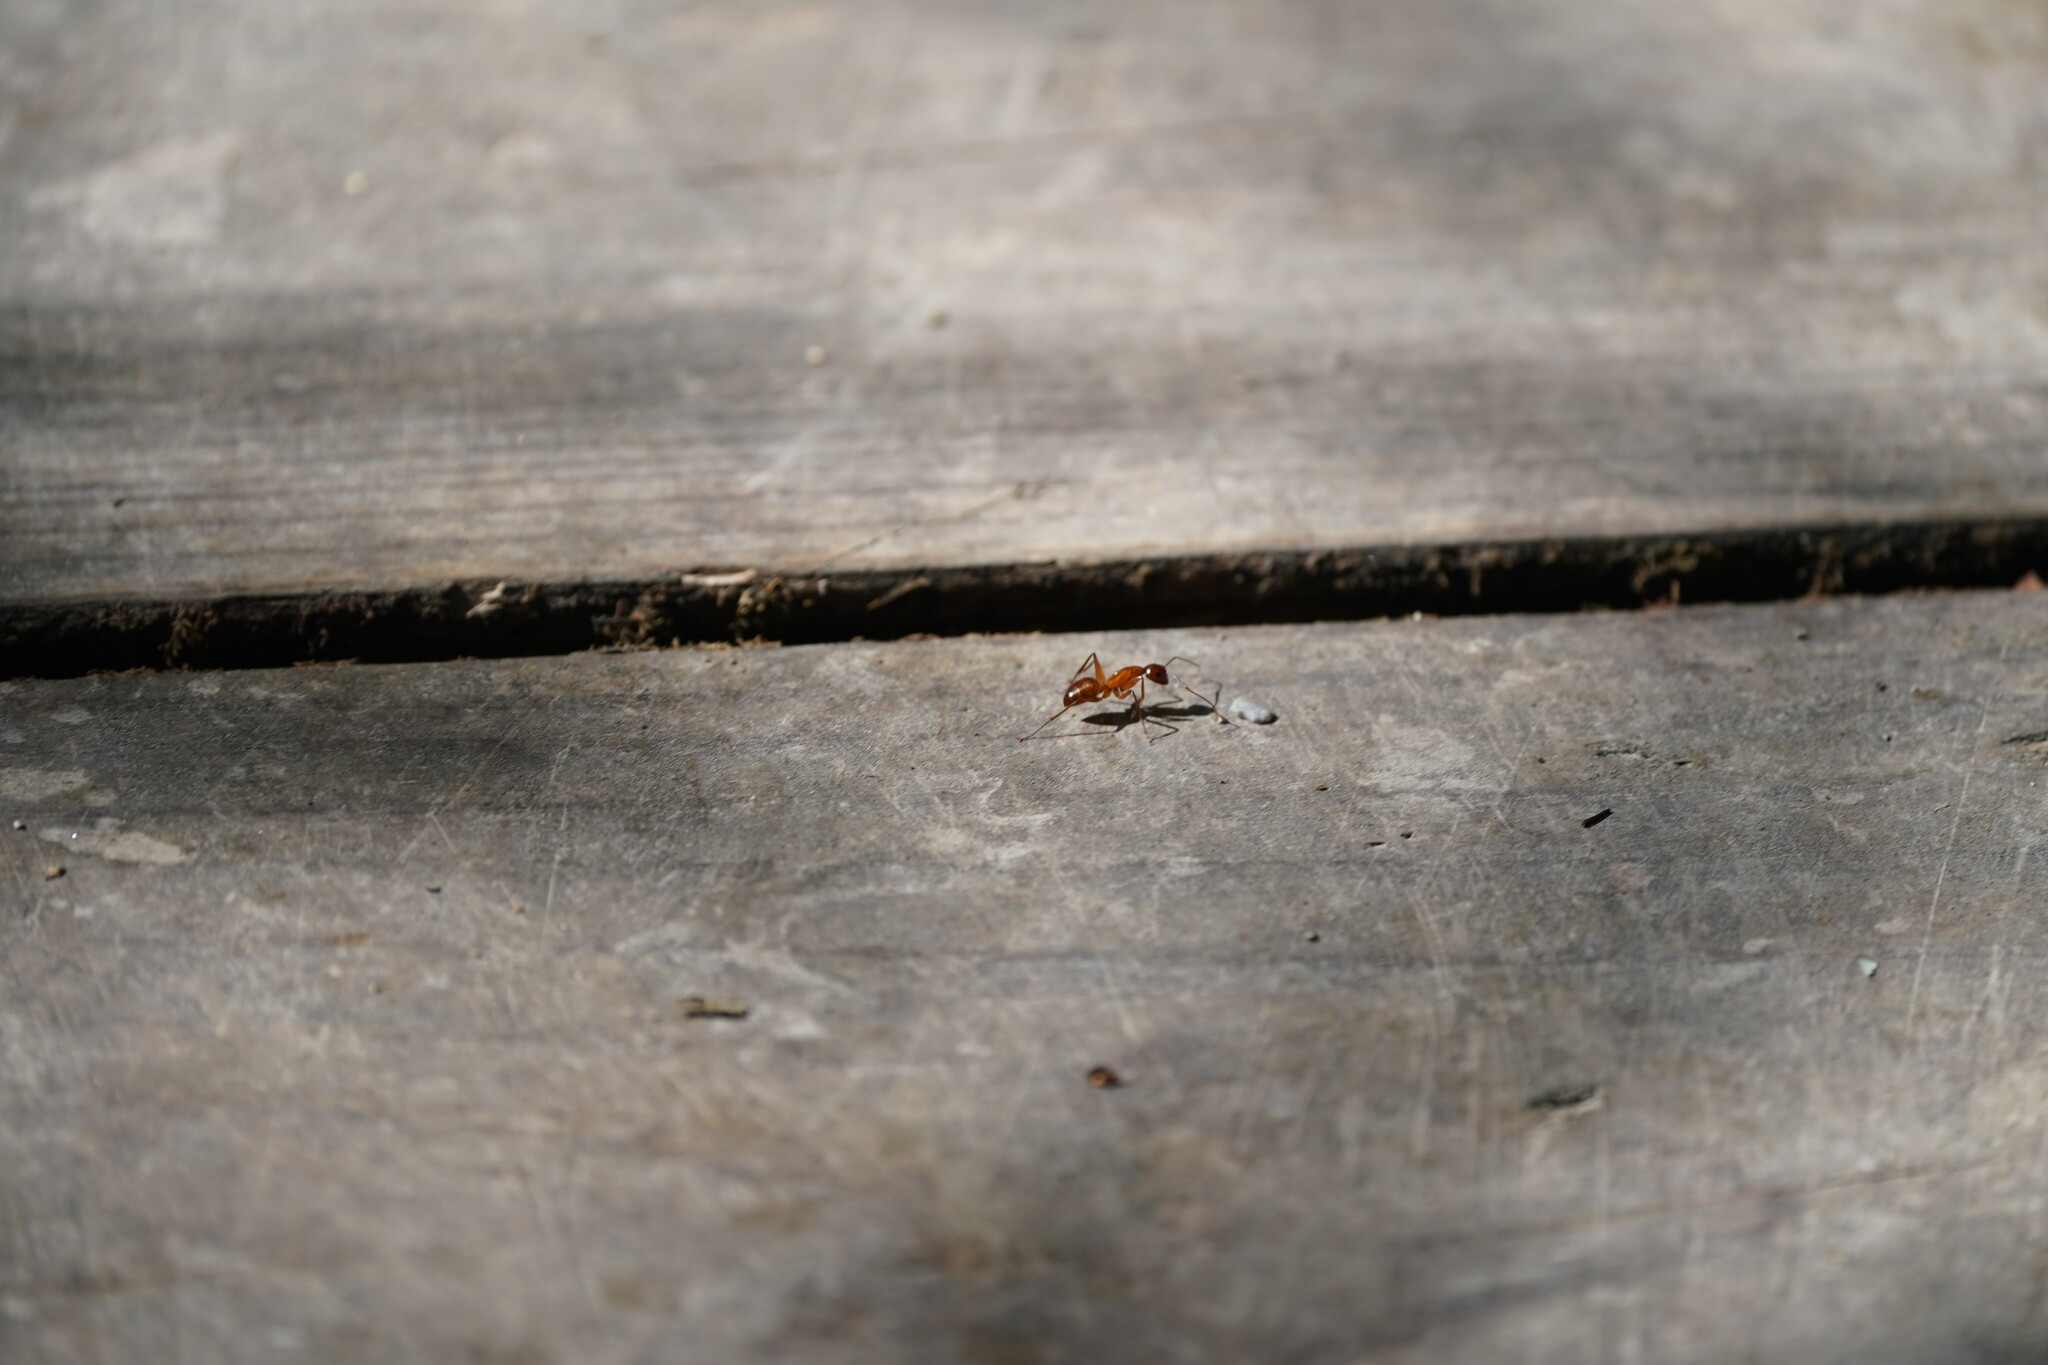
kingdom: Animalia
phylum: Arthropoda
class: Insecta
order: Hymenoptera
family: Formicidae
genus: Camponotus
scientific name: Camponotus castaneus
